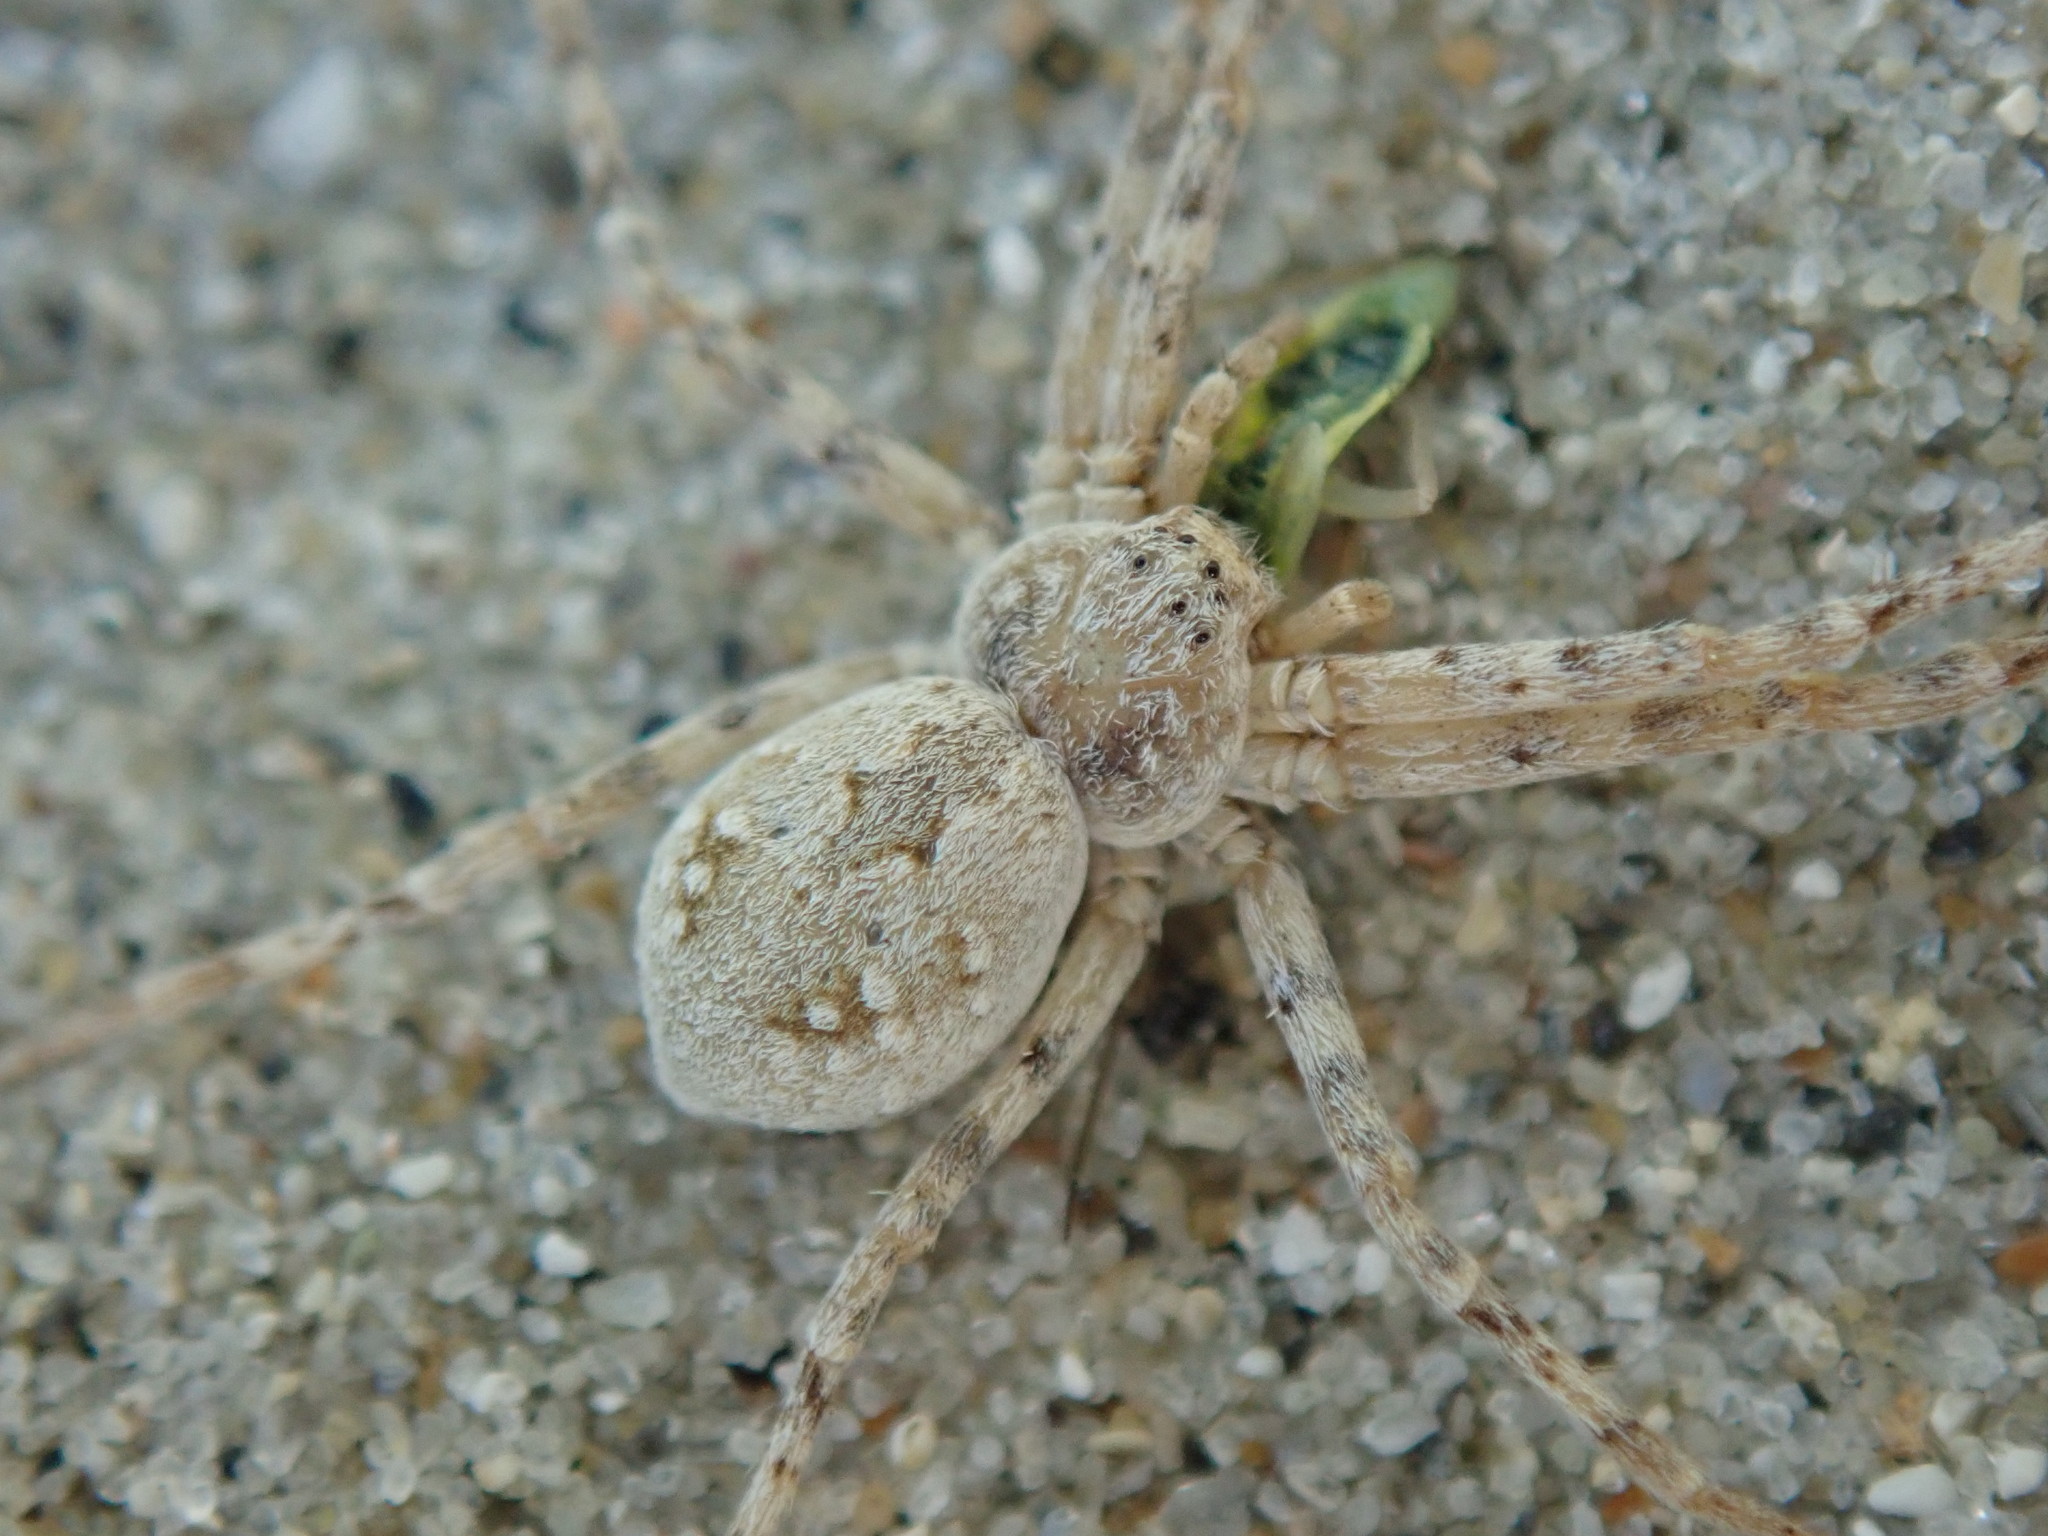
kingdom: Animalia
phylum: Arthropoda
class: Arachnida
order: Araneae
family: Philodromidae
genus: Rhysodromus
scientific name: Rhysodromus fallax
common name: Sand running-spider
